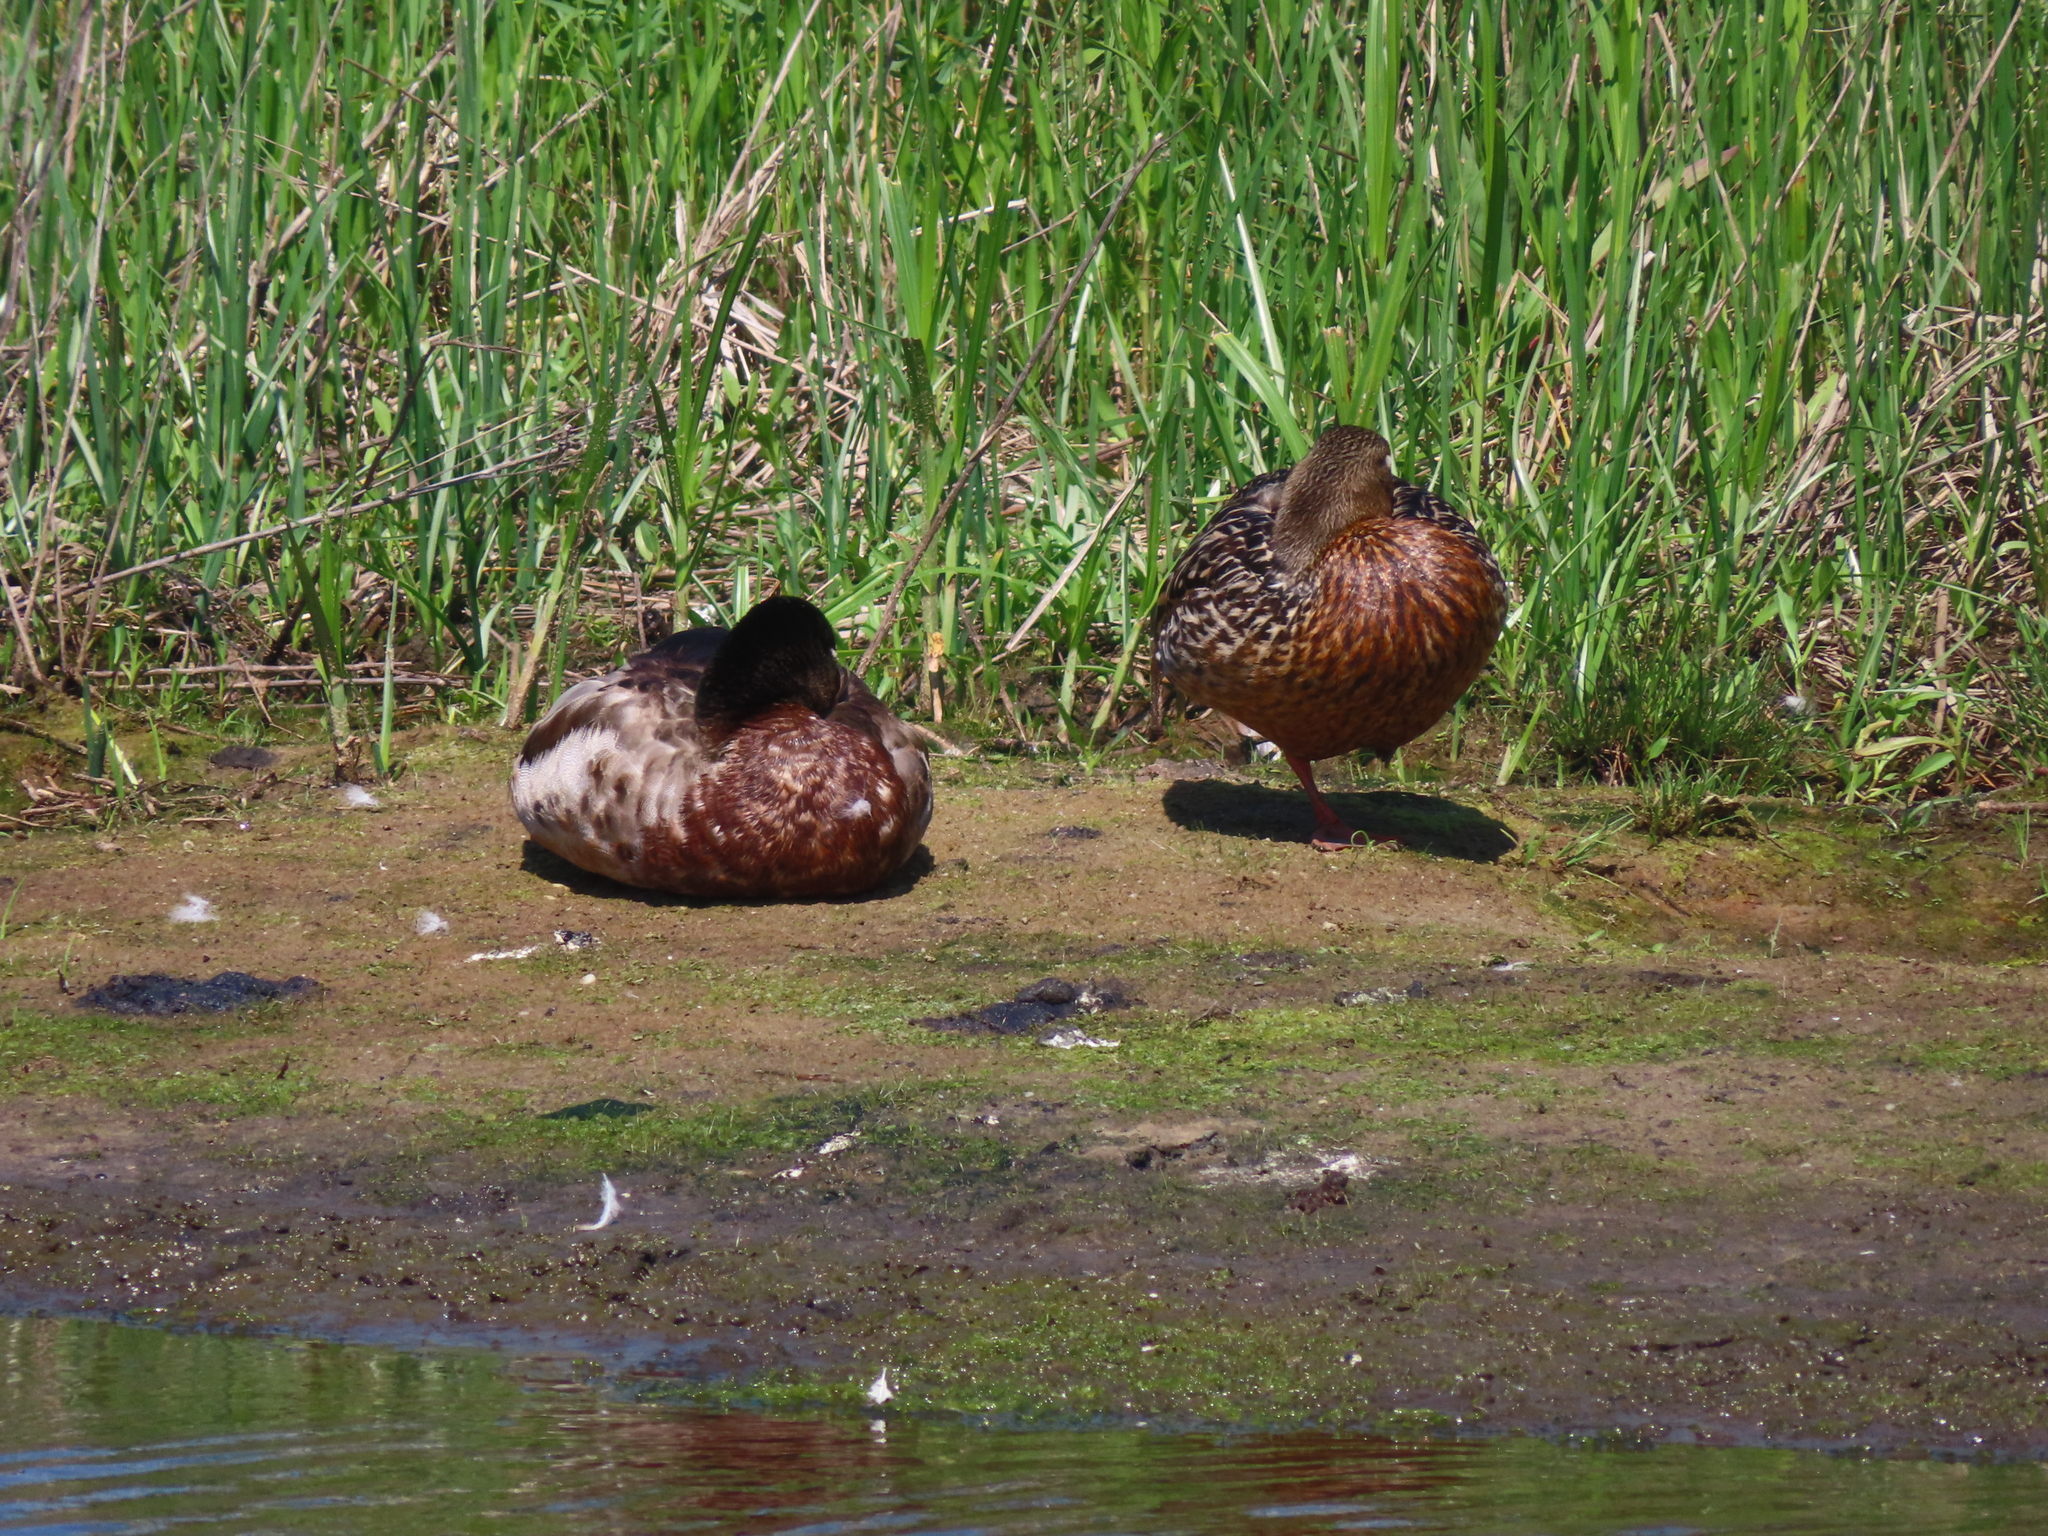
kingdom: Animalia
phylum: Chordata
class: Aves
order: Anseriformes
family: Anatidae
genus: Anas
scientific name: Anas platyrhynchos
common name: Mallard
